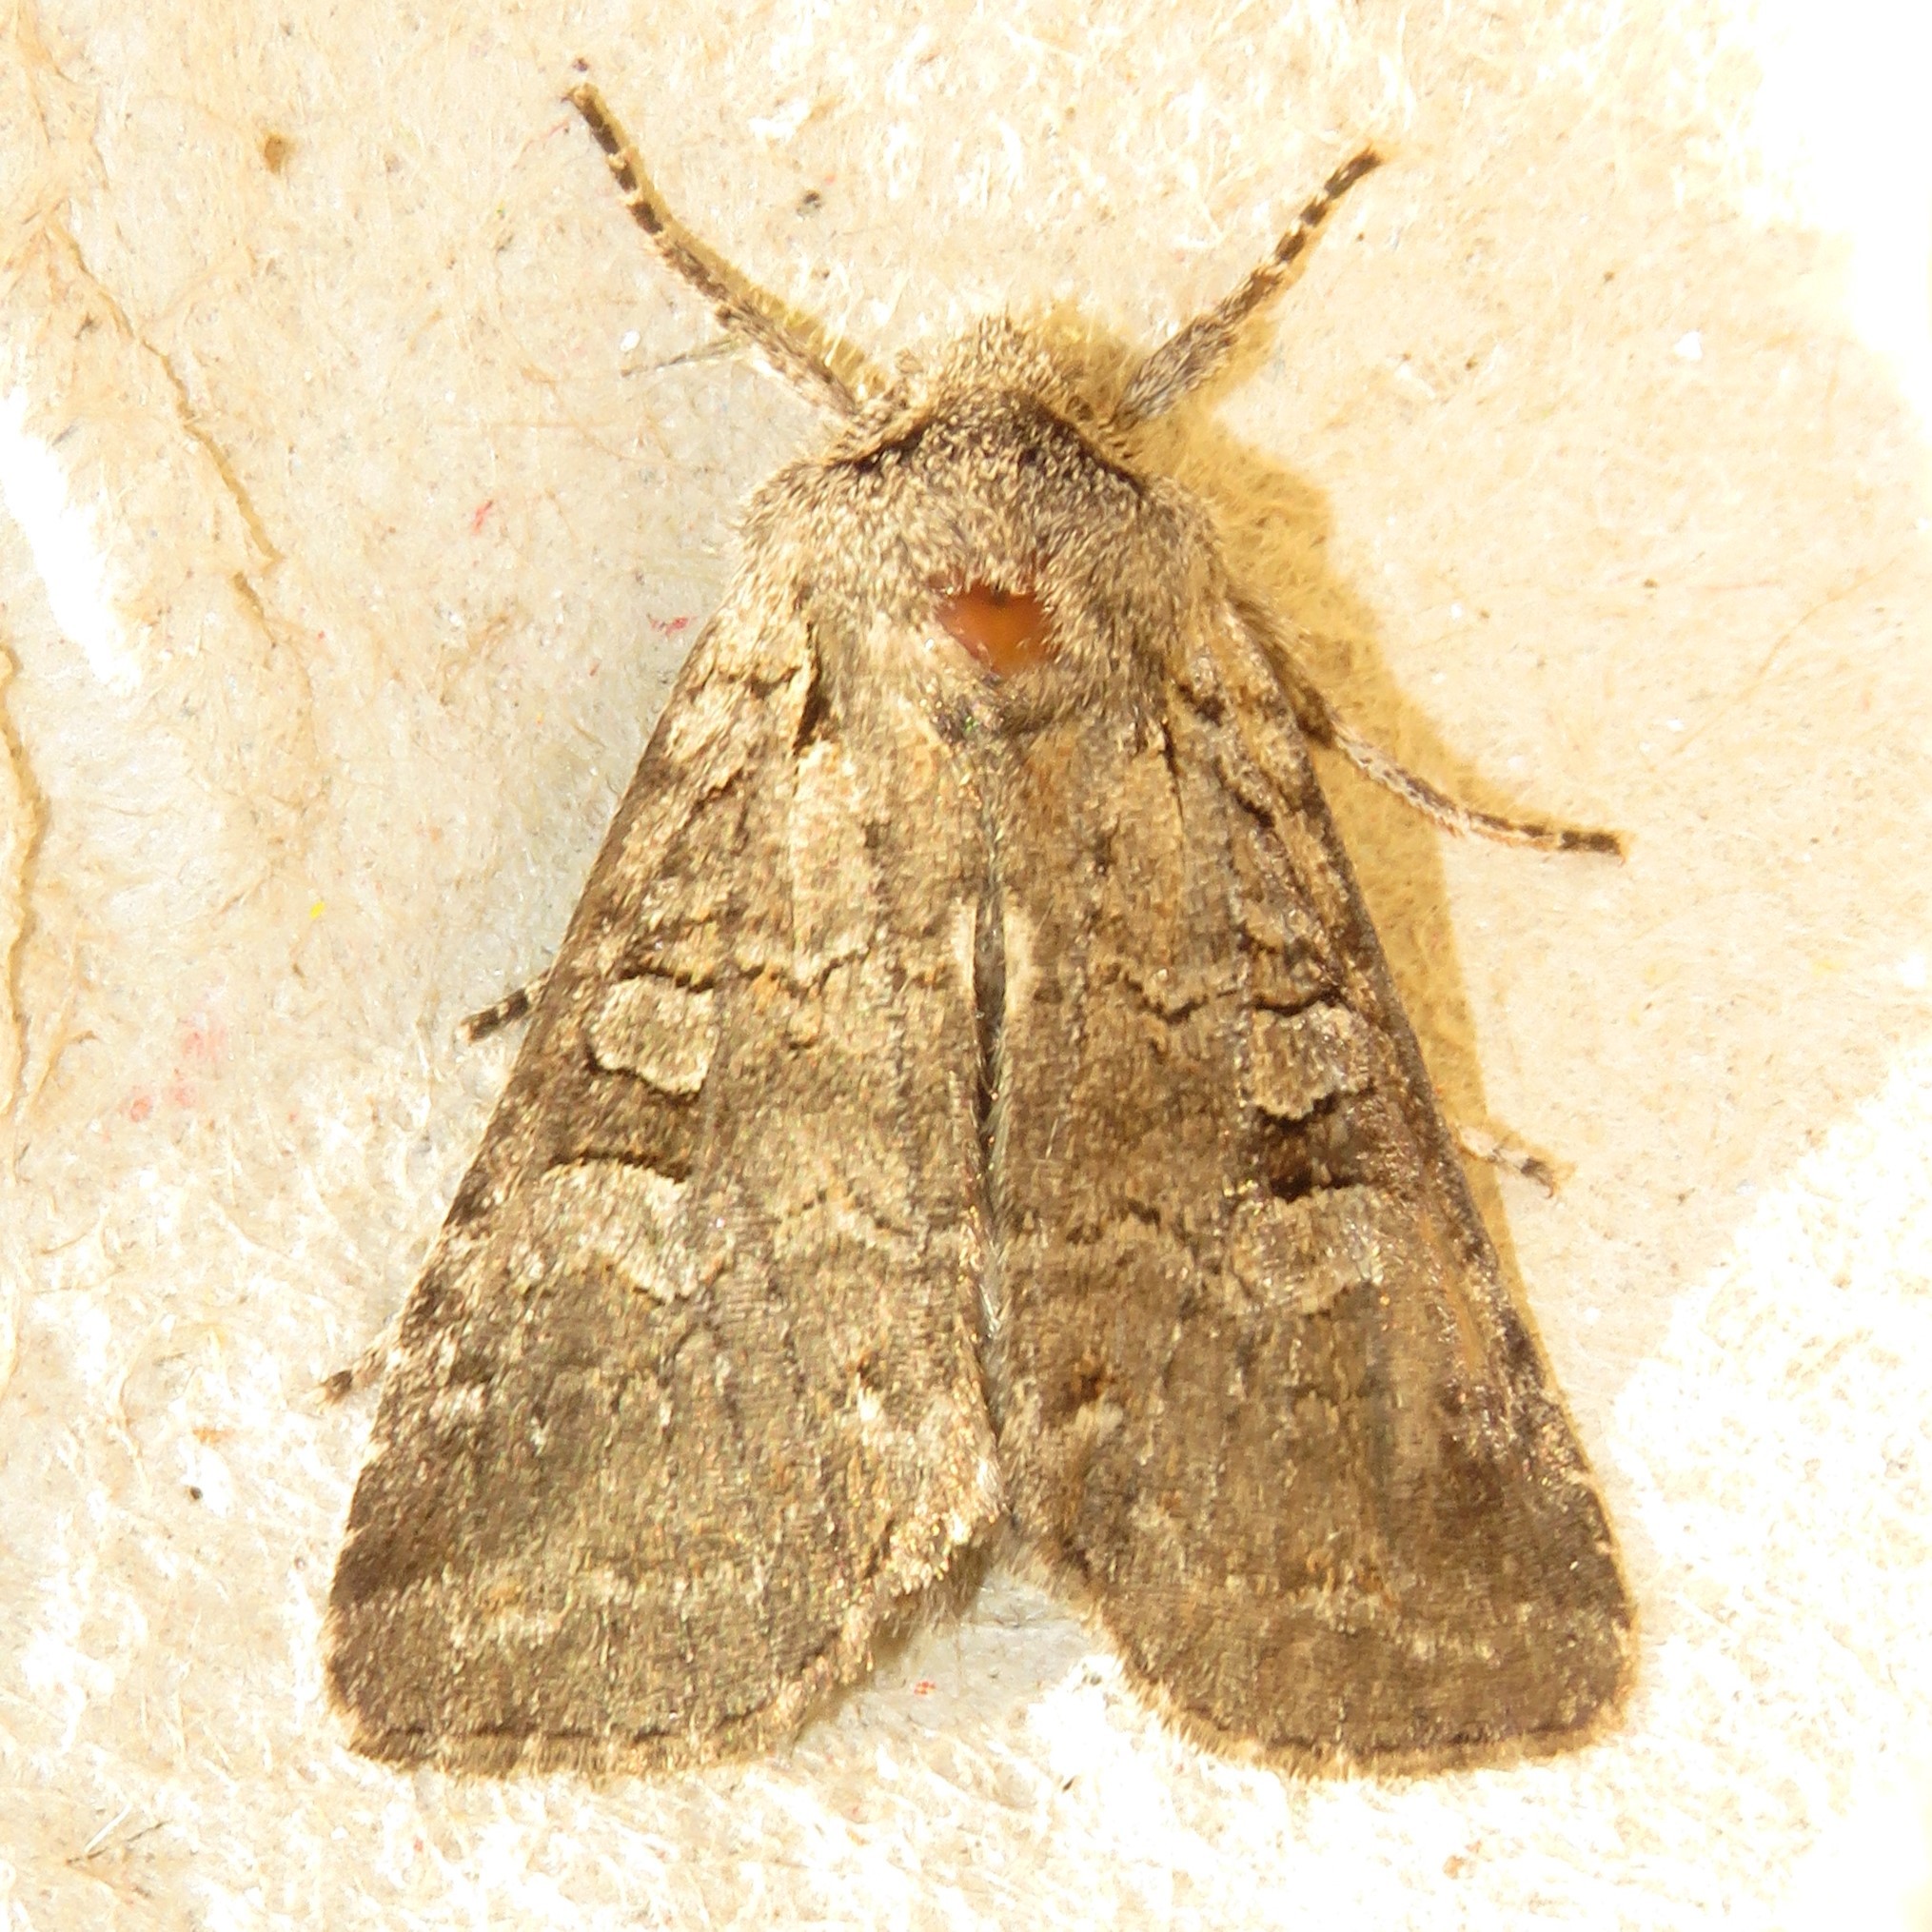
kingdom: Animalia
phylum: Arthropoda
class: Insecta
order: Lepidoptera
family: Noctuidae
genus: Brachylomia
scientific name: Brachylomia algens
